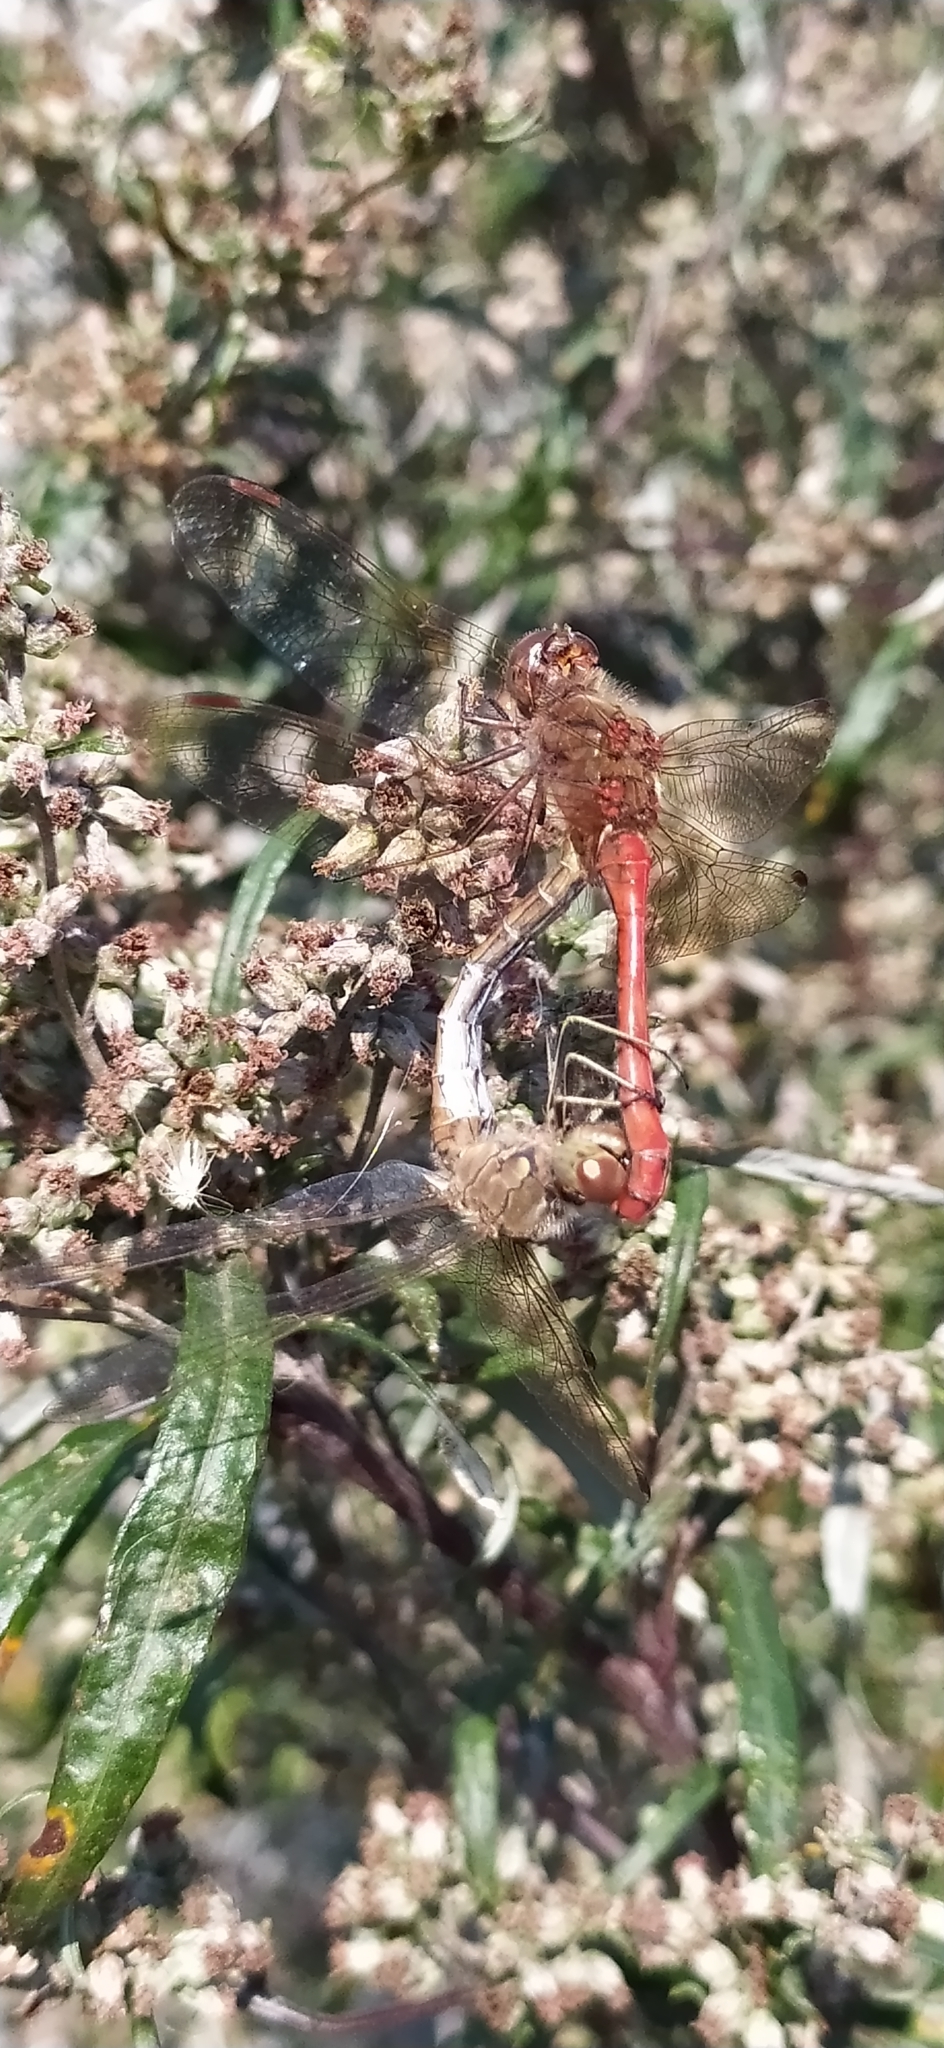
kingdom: Animalia
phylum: Arthropoda
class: Insecta
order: Odonata
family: Libellulidae
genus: Sympetrum
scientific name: Sympetrum vulgatum
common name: Vagrant darter
